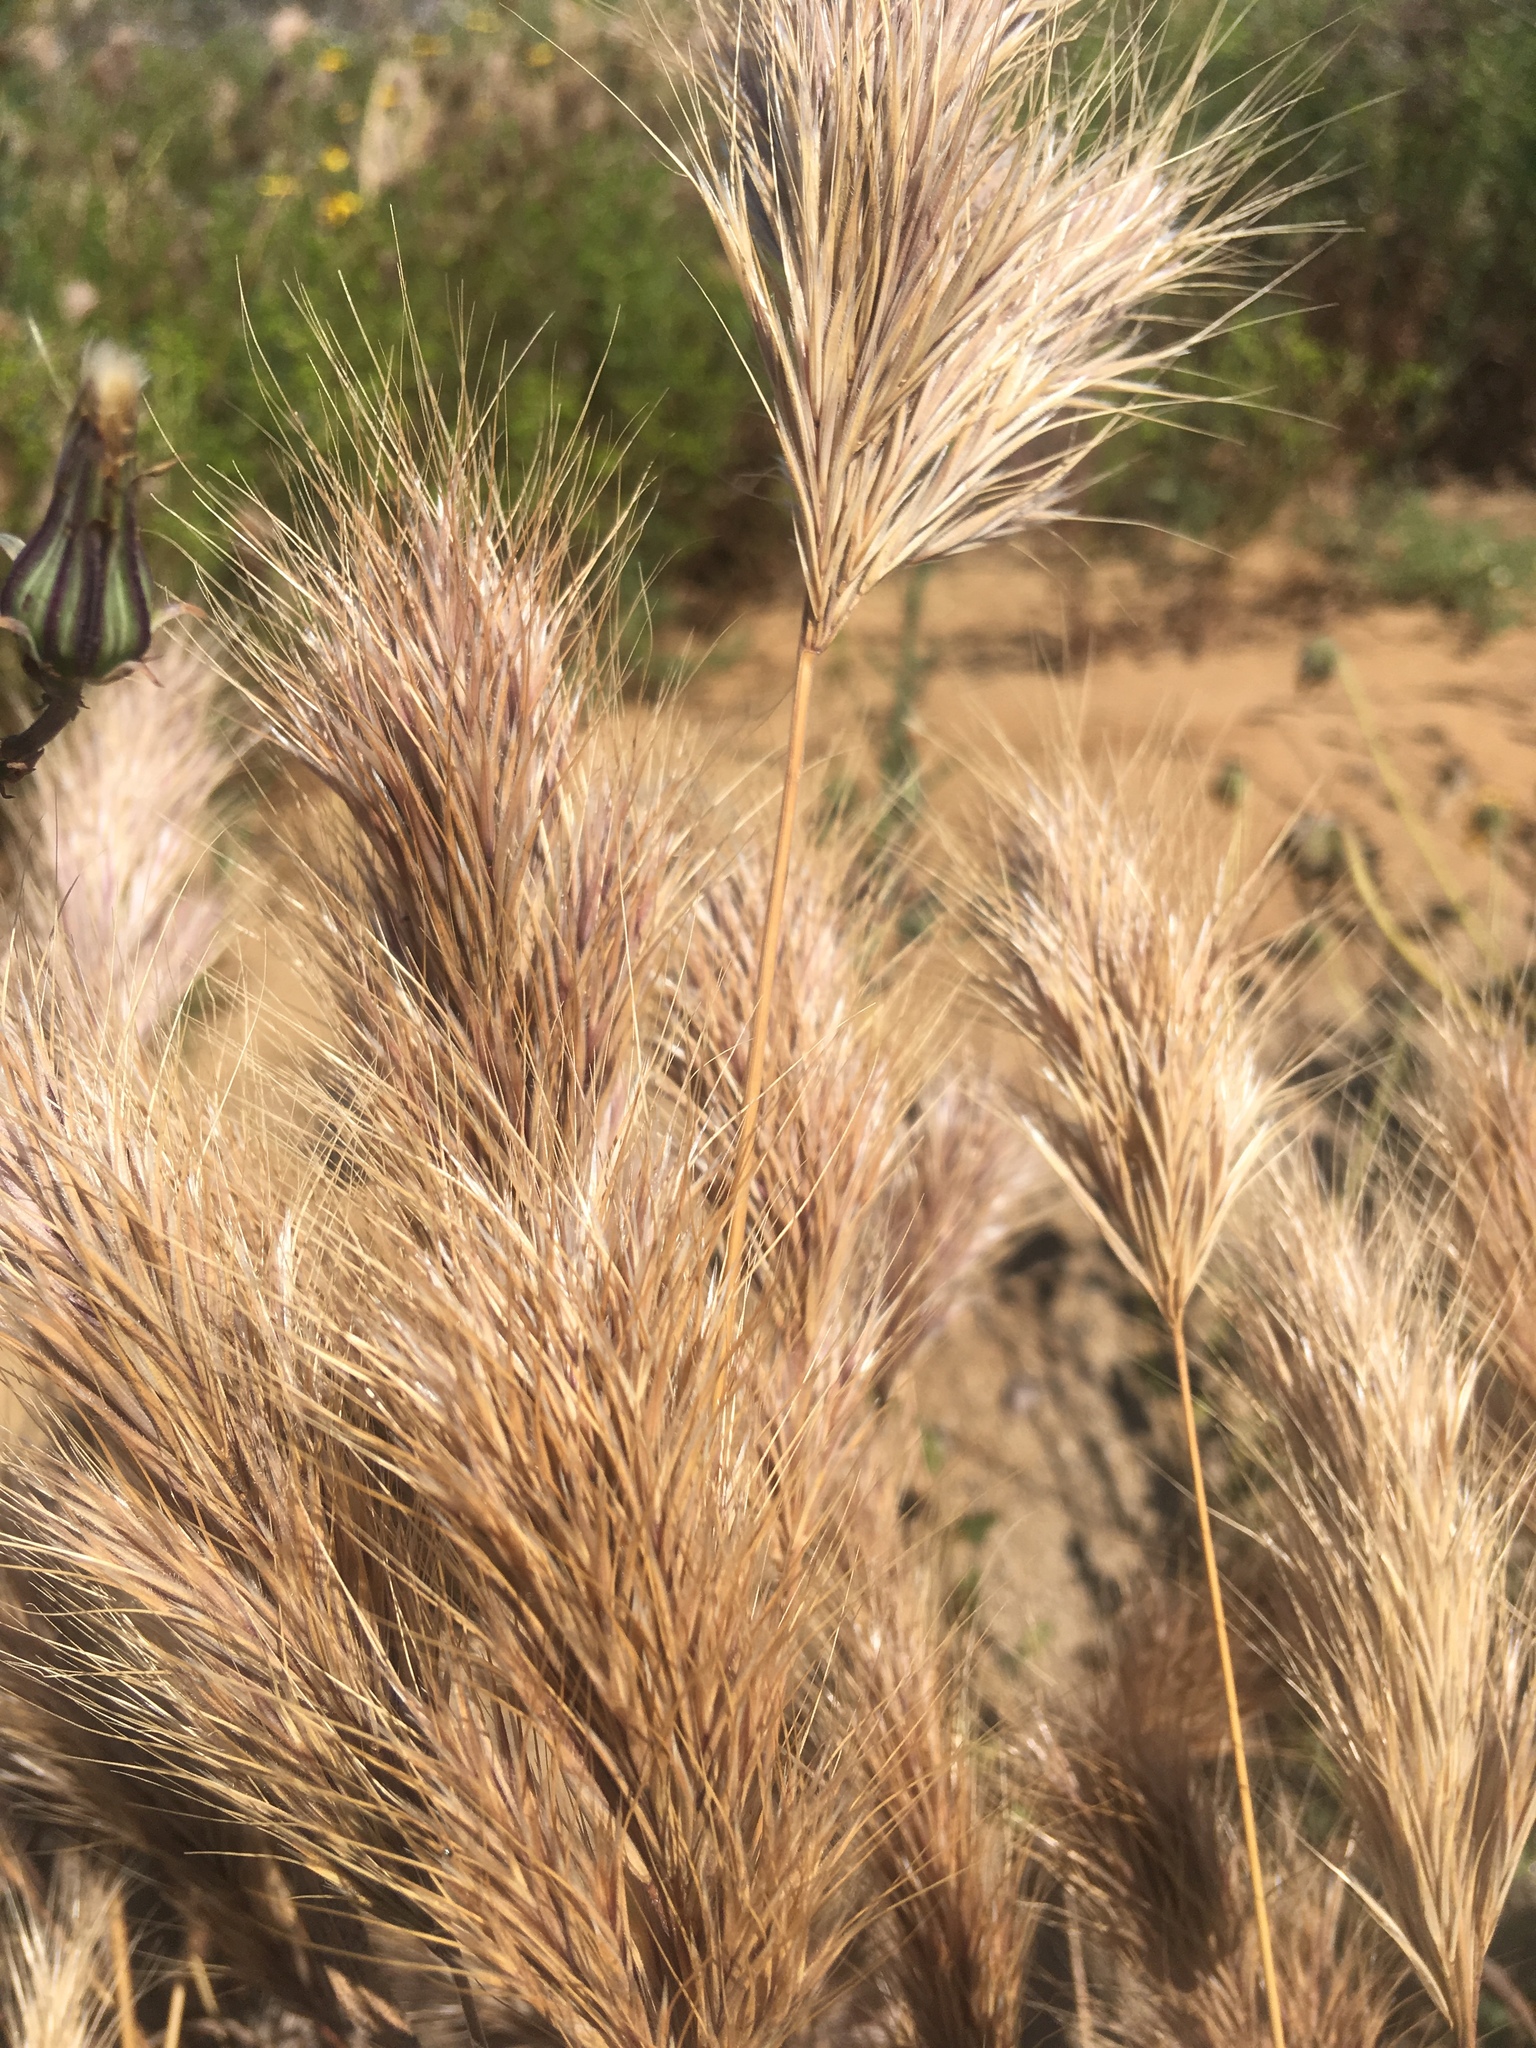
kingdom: Plantae
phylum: Tracheophyta
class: Liliopsida
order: Poales
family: Poaceae
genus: Bromus
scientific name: Bromus rubens
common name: Red brome
